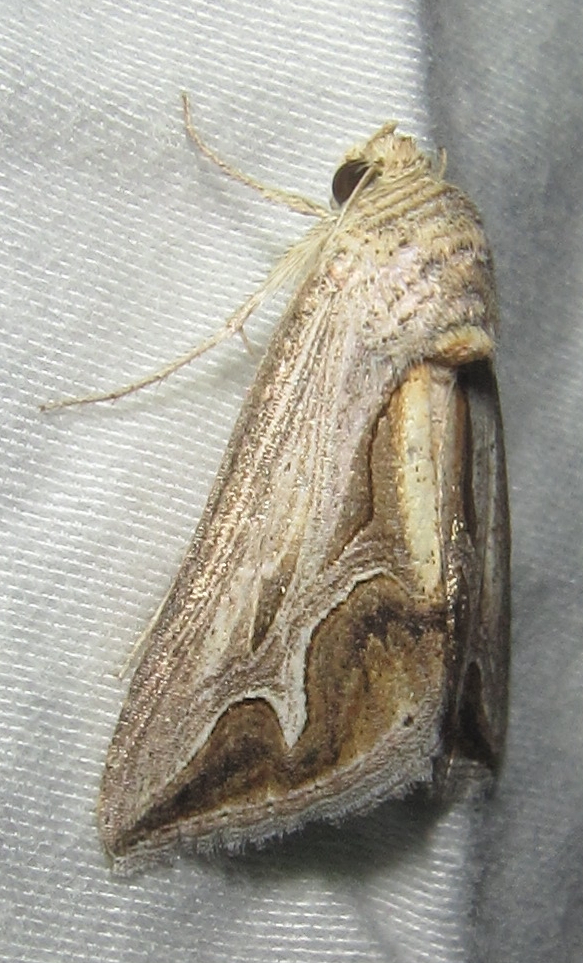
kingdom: Animalia
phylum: Arthropoda
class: Insecta
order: Lepidoptera
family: Erebidae
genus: Cuneisigna
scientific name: Cuneisigna rivulata
